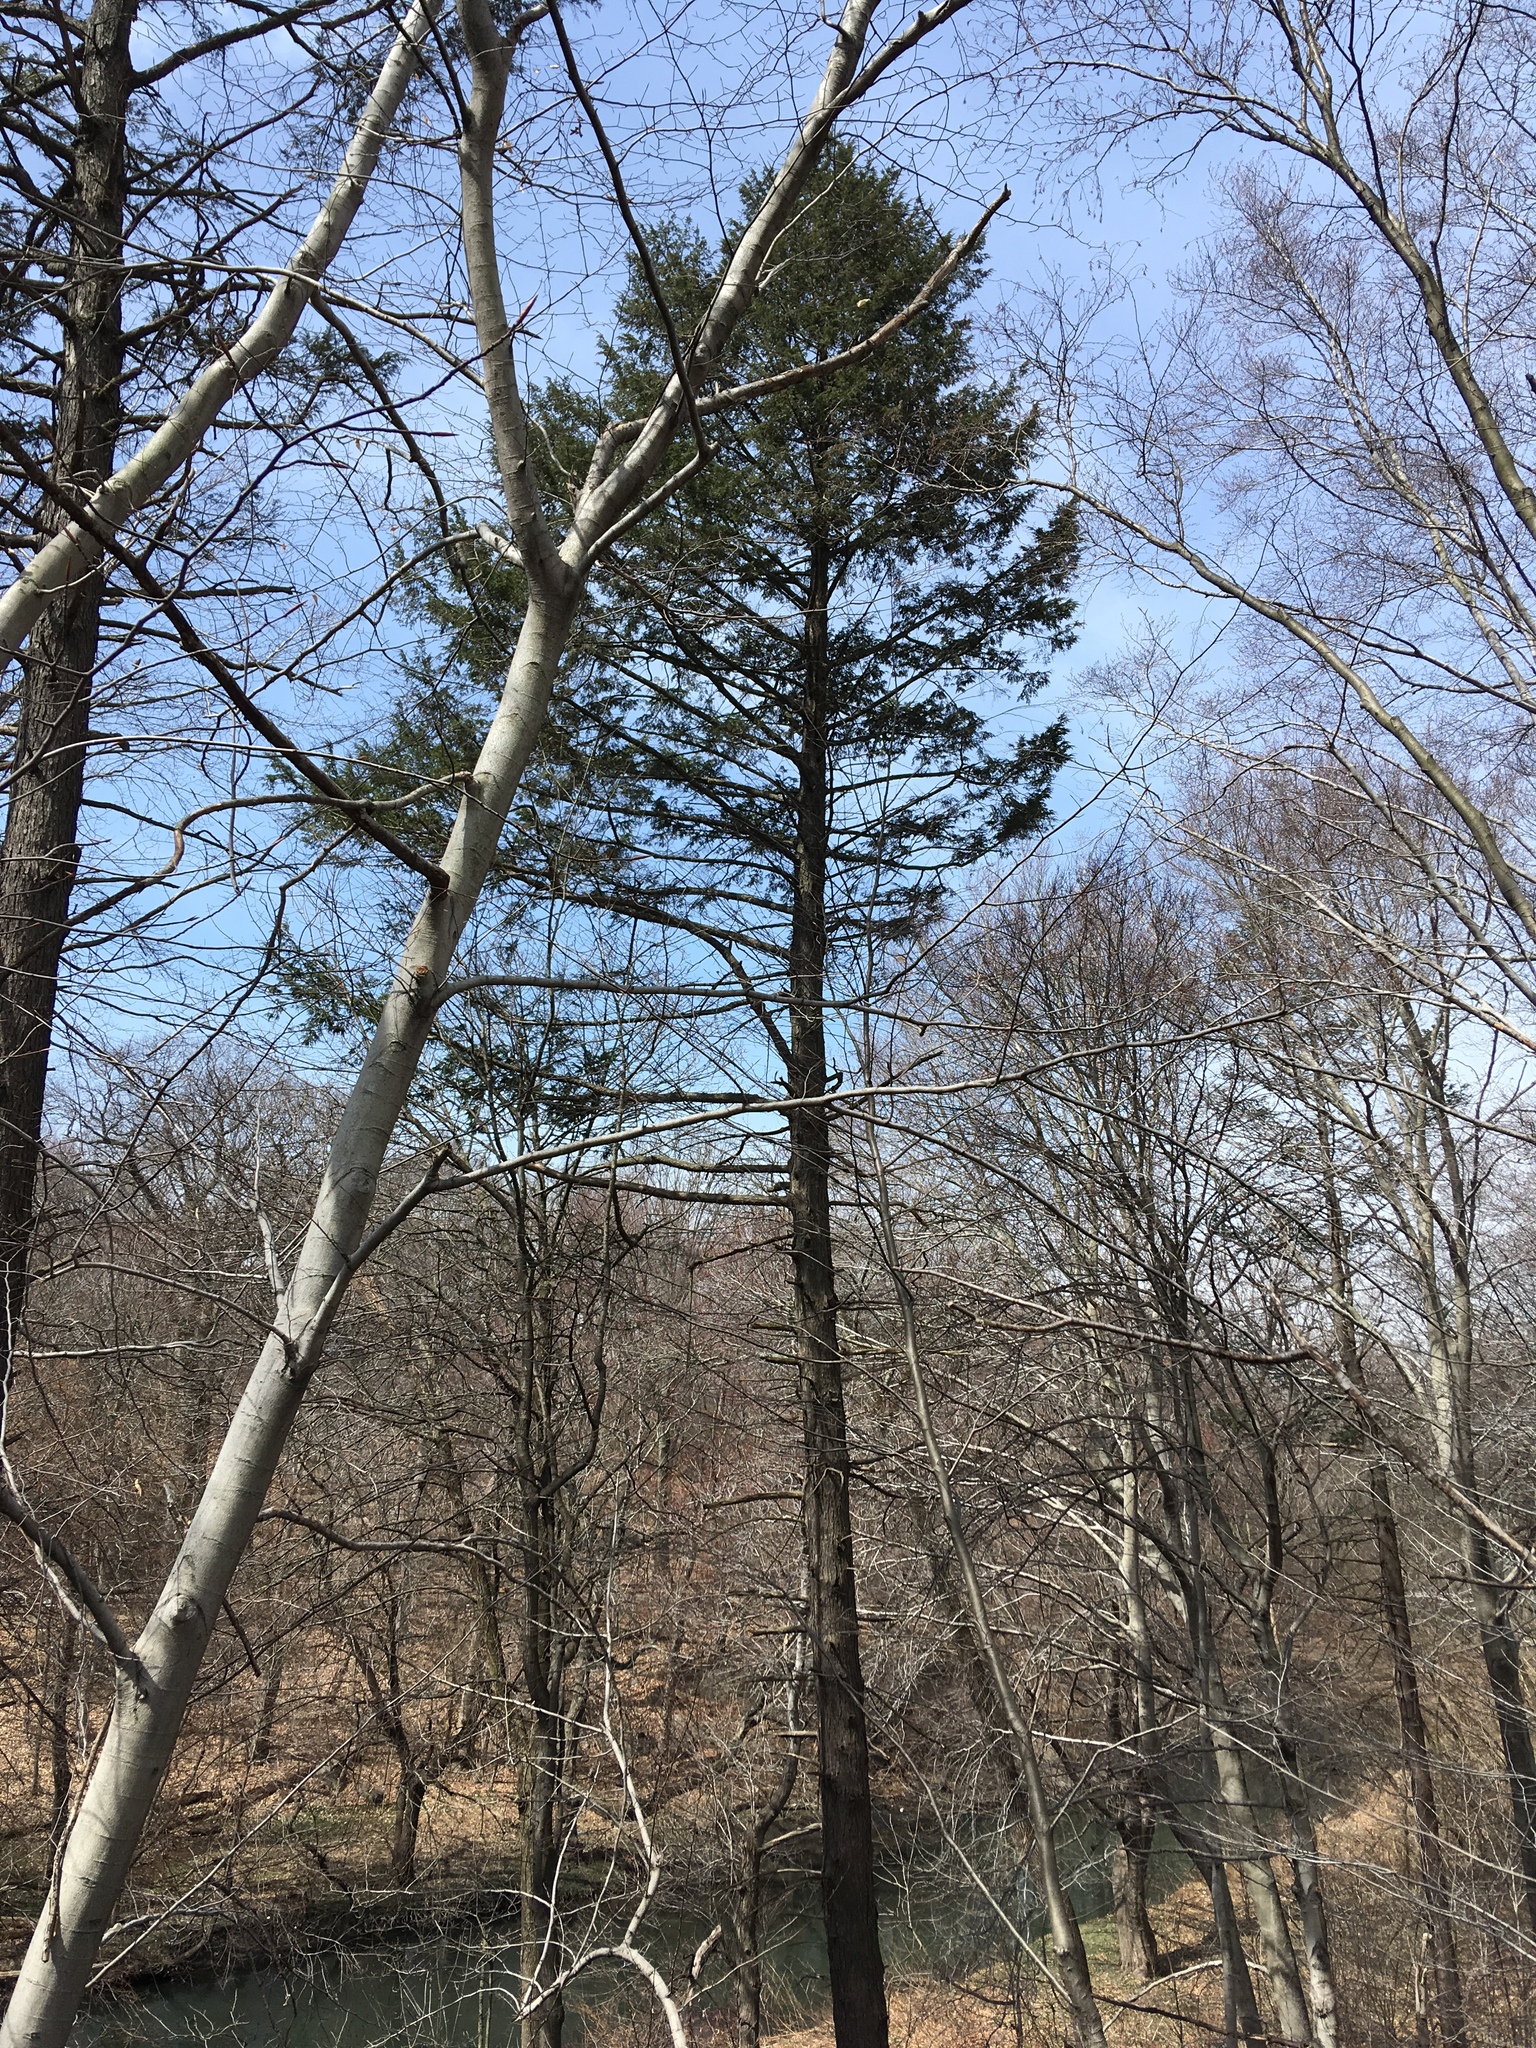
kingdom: Plantae
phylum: Tracheophyta
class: Pinopsida
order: Pinales
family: Pinaceae
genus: Tsuga
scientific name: Tsuga canadensis
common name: Eastern hemlock
